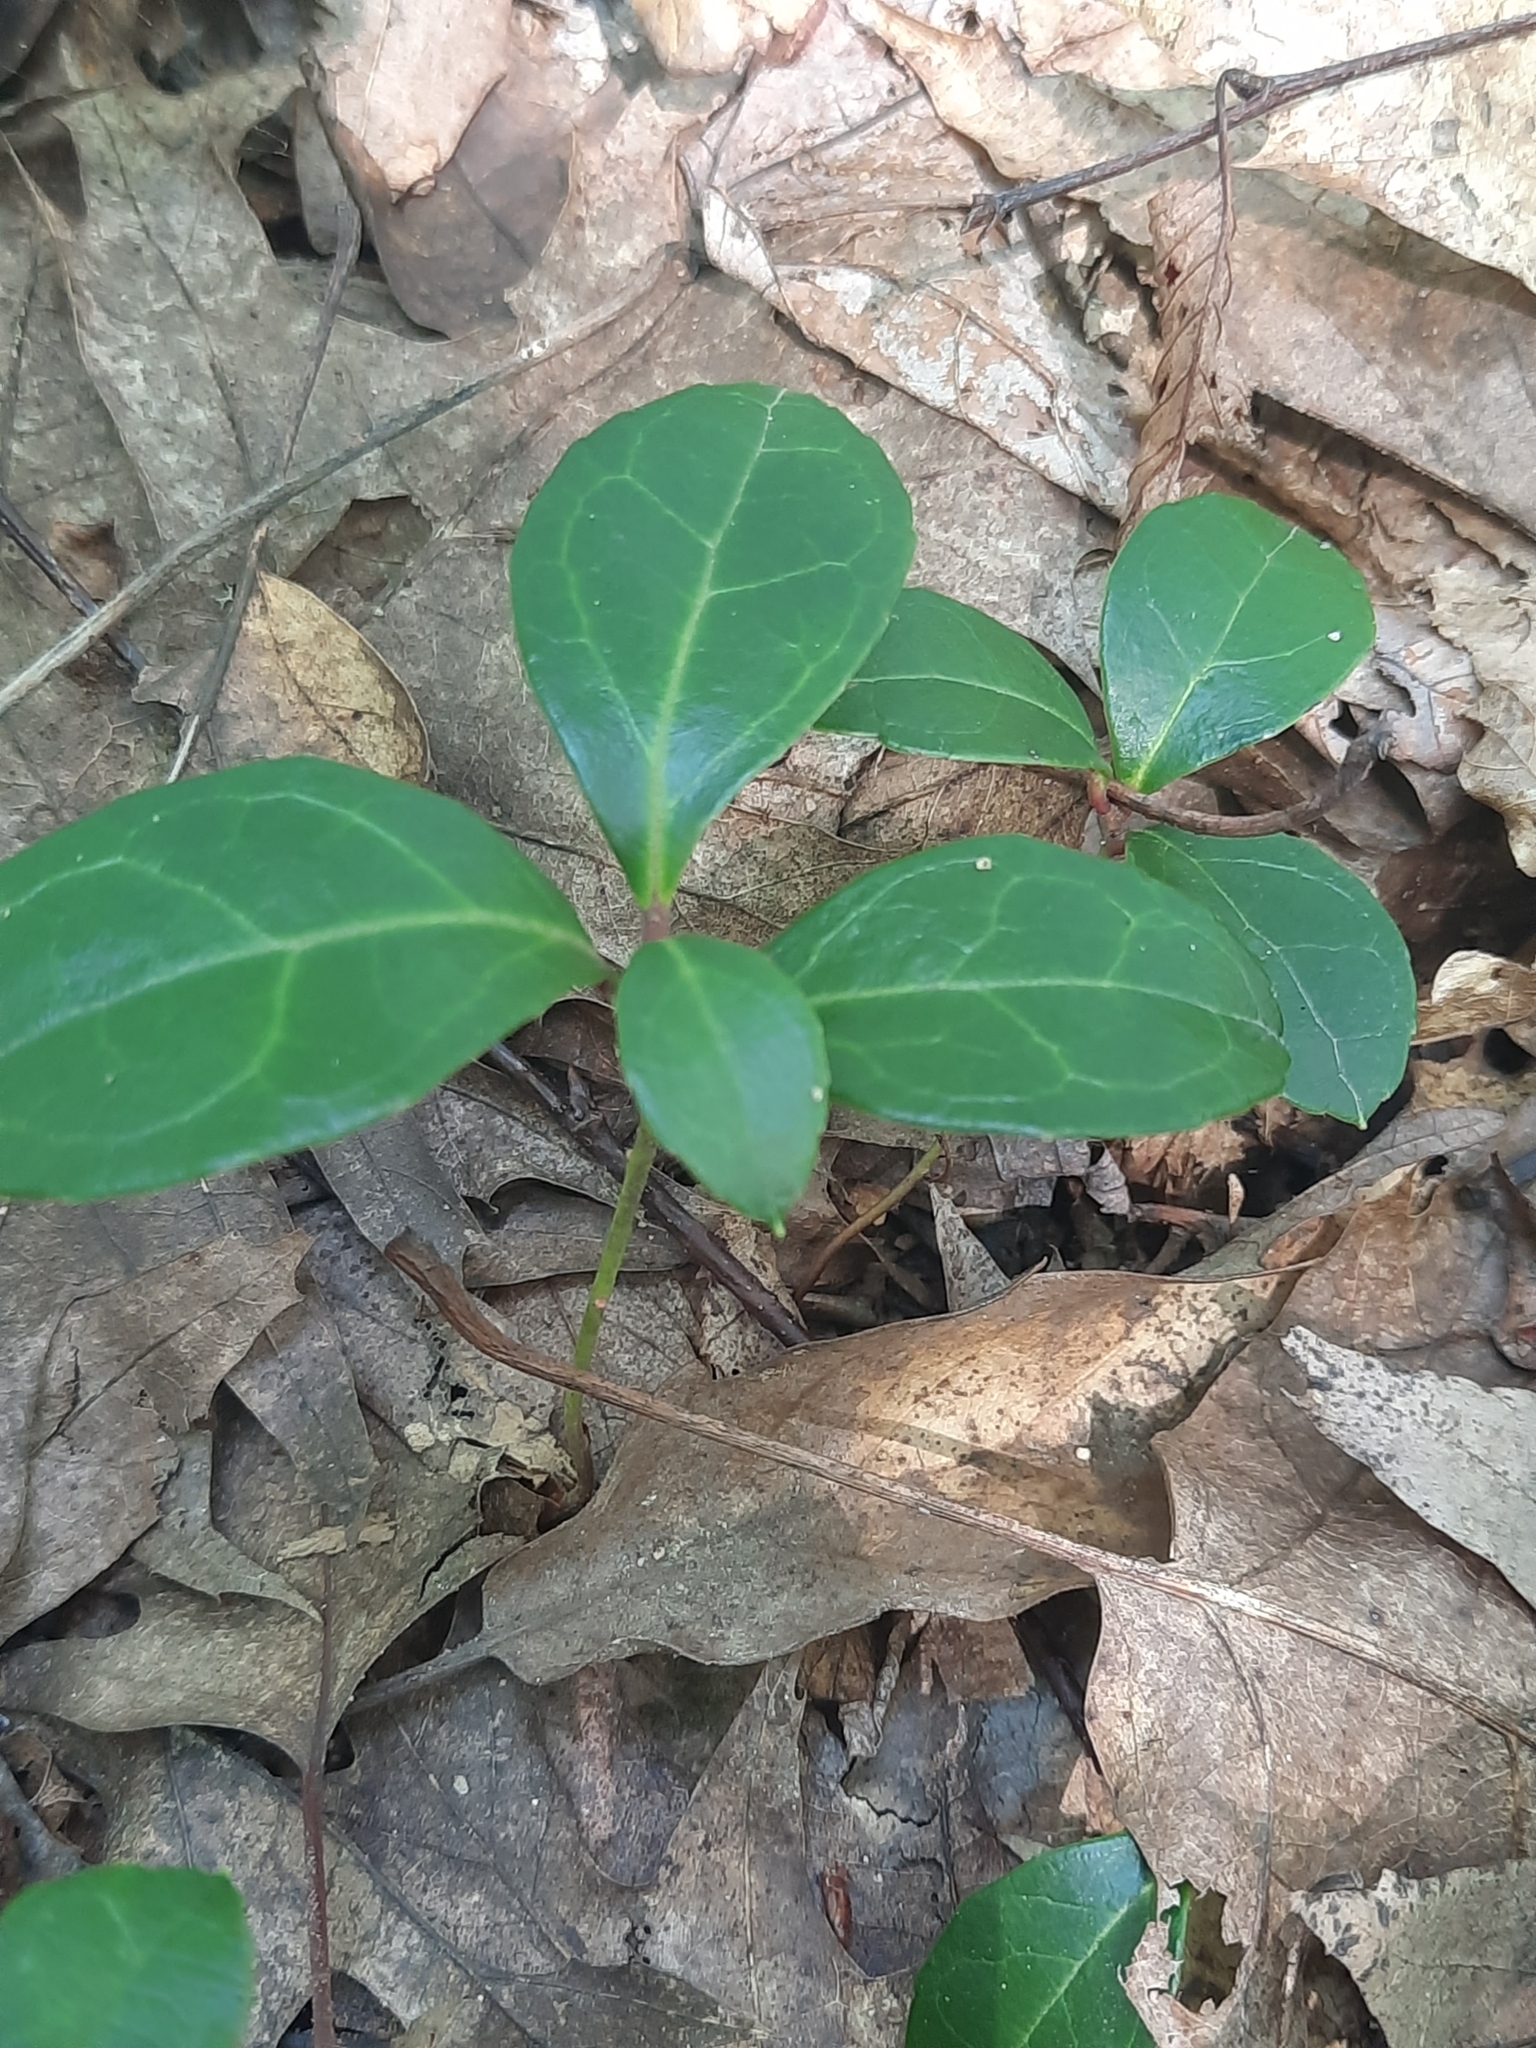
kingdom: Plantae
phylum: Tracheophyta
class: Magnoliopsida
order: Ericales
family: Ericaceae
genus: Gaultheria
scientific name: Gaultheria procumbens
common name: Checkerberry
